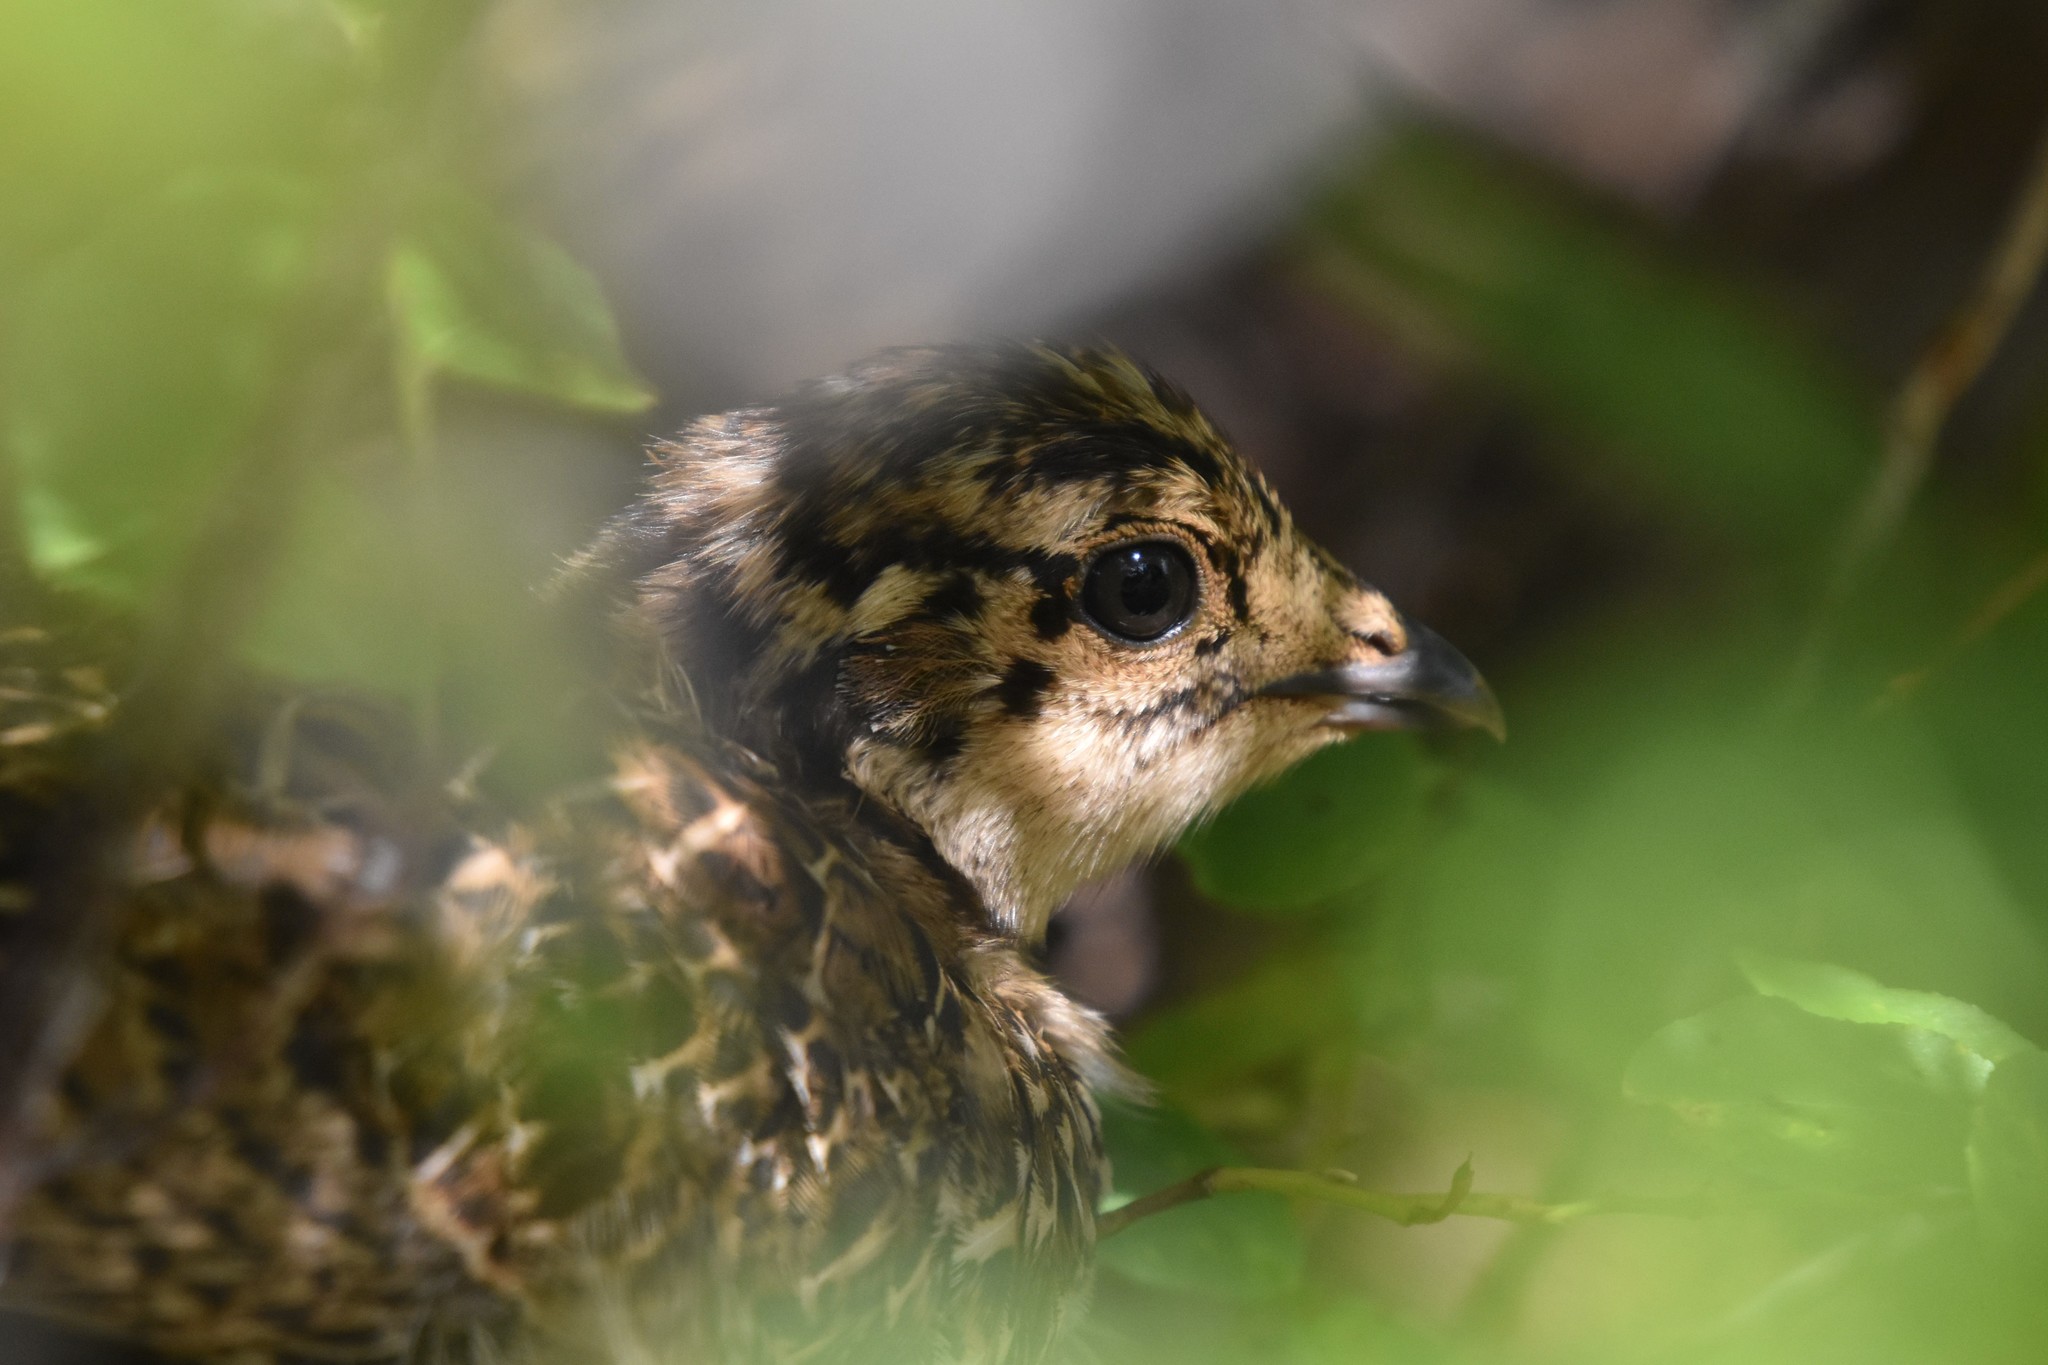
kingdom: Animalia
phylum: Chordata
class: Aves
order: Galliformes
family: Phasianidae
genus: Dendragapus
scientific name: Dendragapus fuliginosus
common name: Sooty grouse
